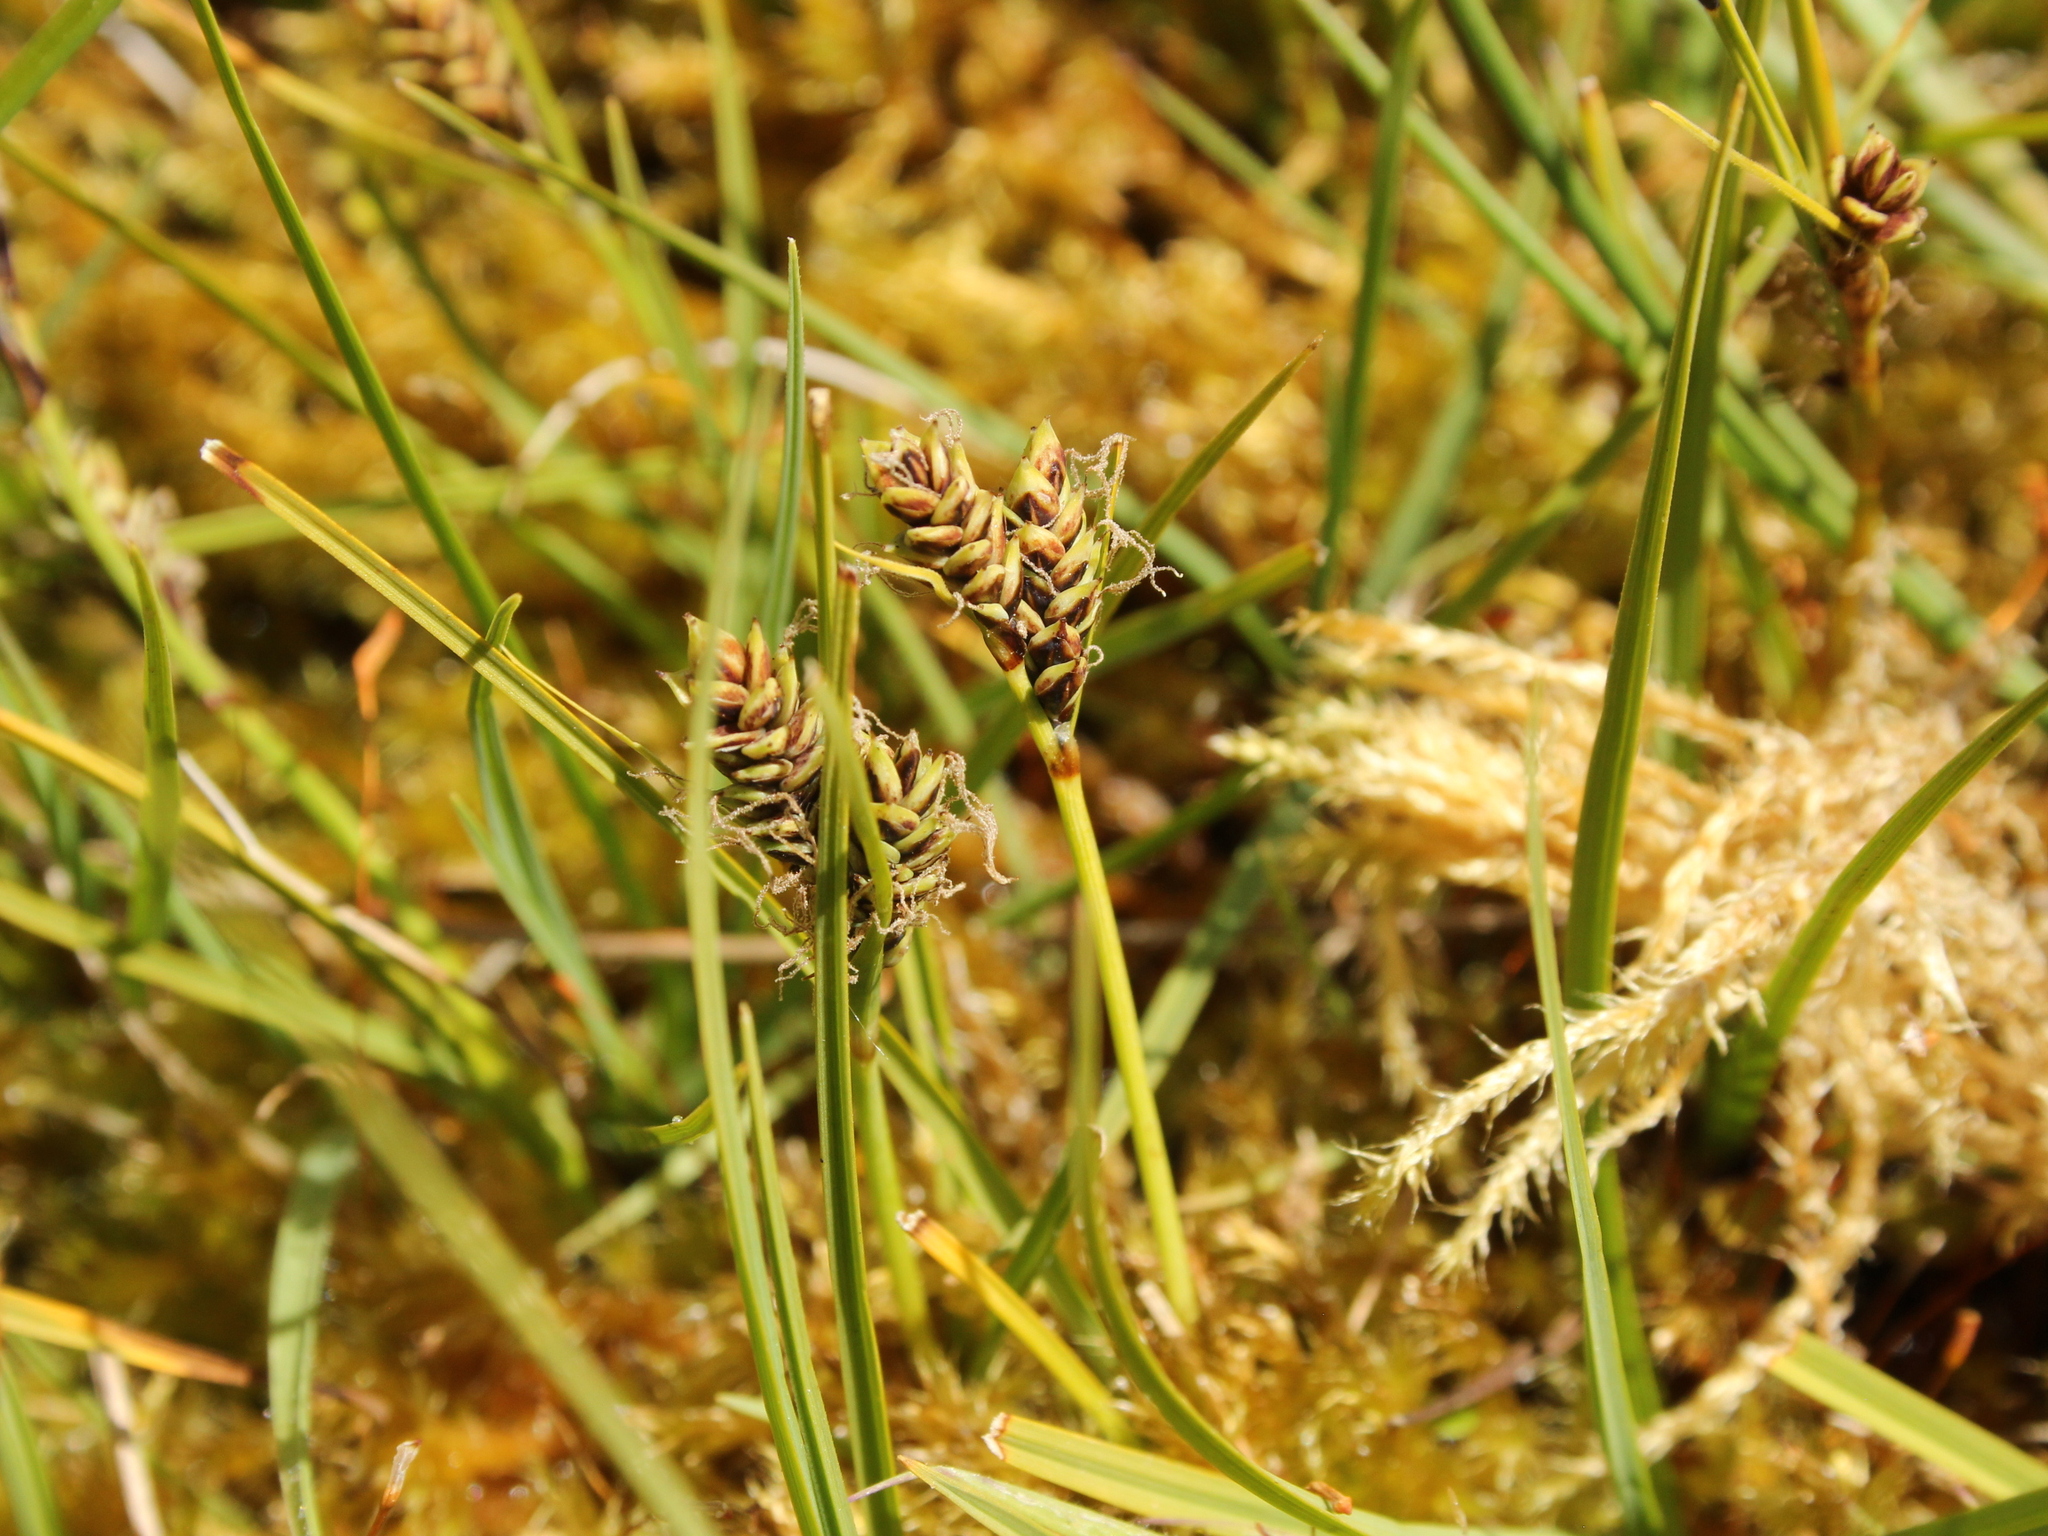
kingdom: Plantae
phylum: Tracheophyta
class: Liliopsida
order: Poales
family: Cyperaceae
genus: Carex
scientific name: Carex gaudichaudiana
